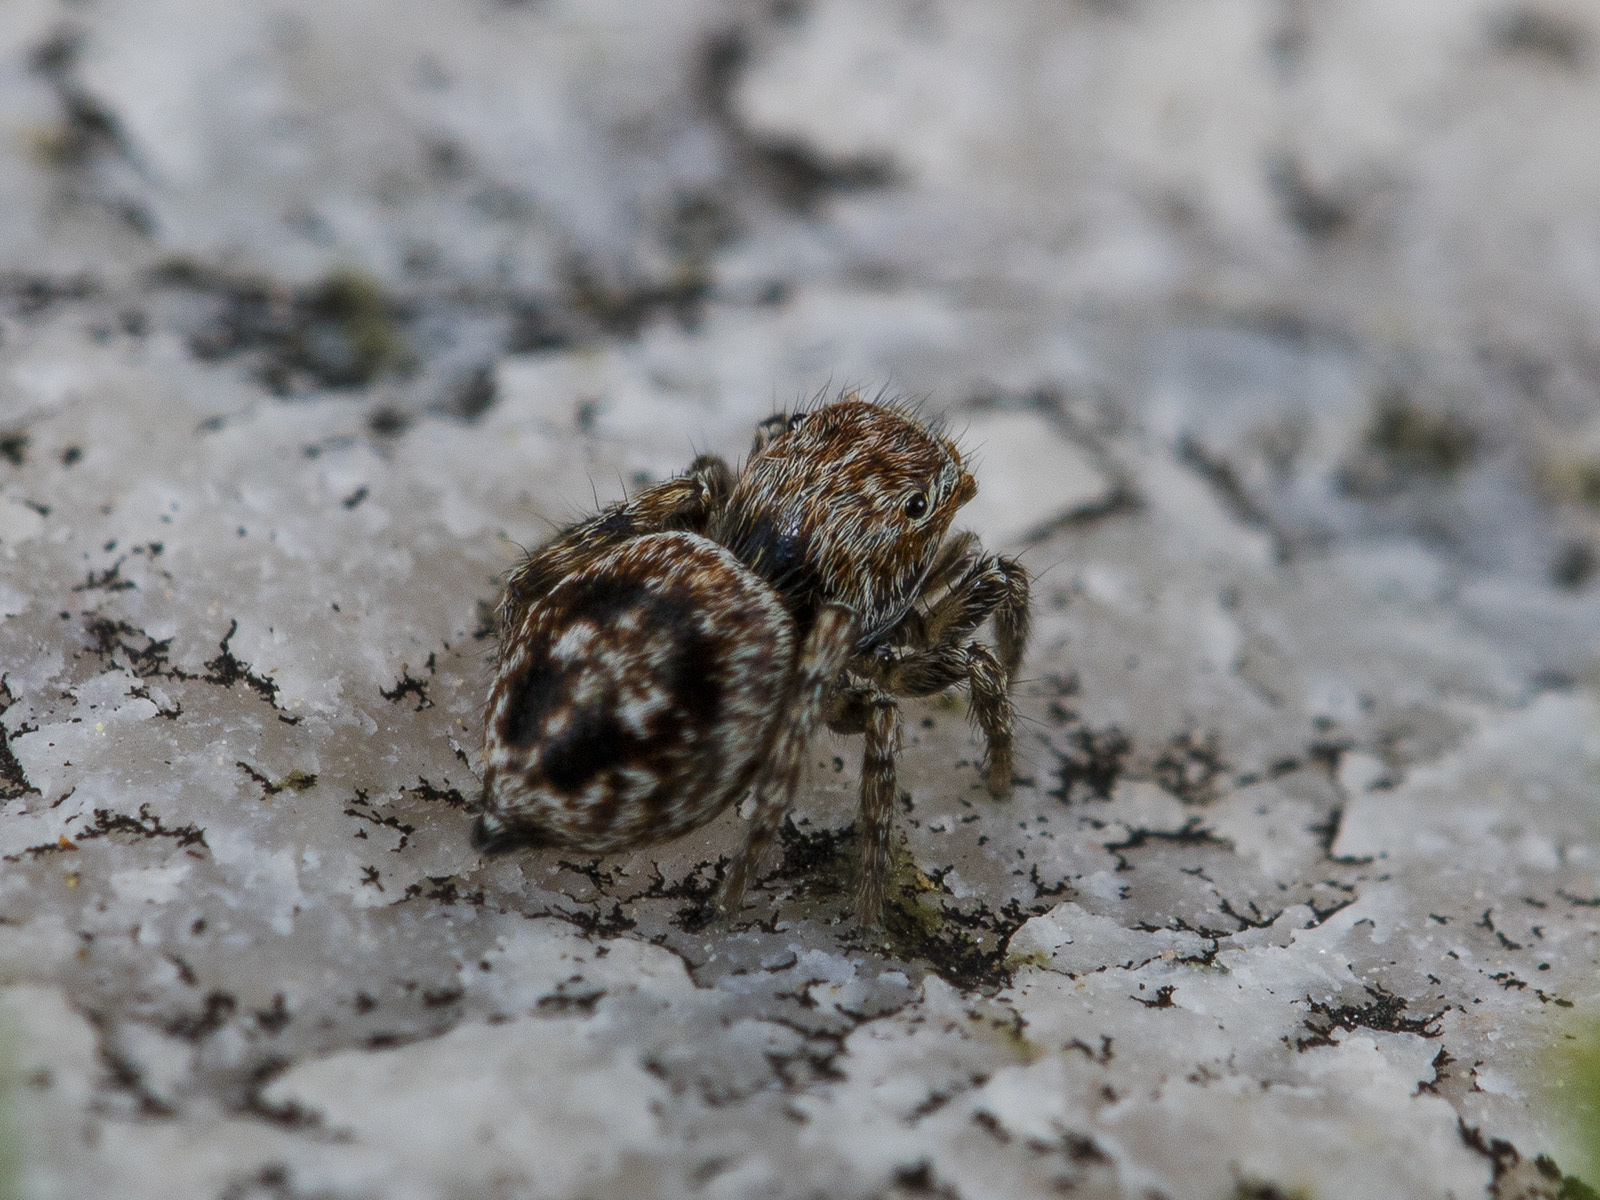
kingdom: Animalia
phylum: Arthropoda
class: Arachnida
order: Araneae
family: Salticidae
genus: Attulus
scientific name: Attulus mirandus
